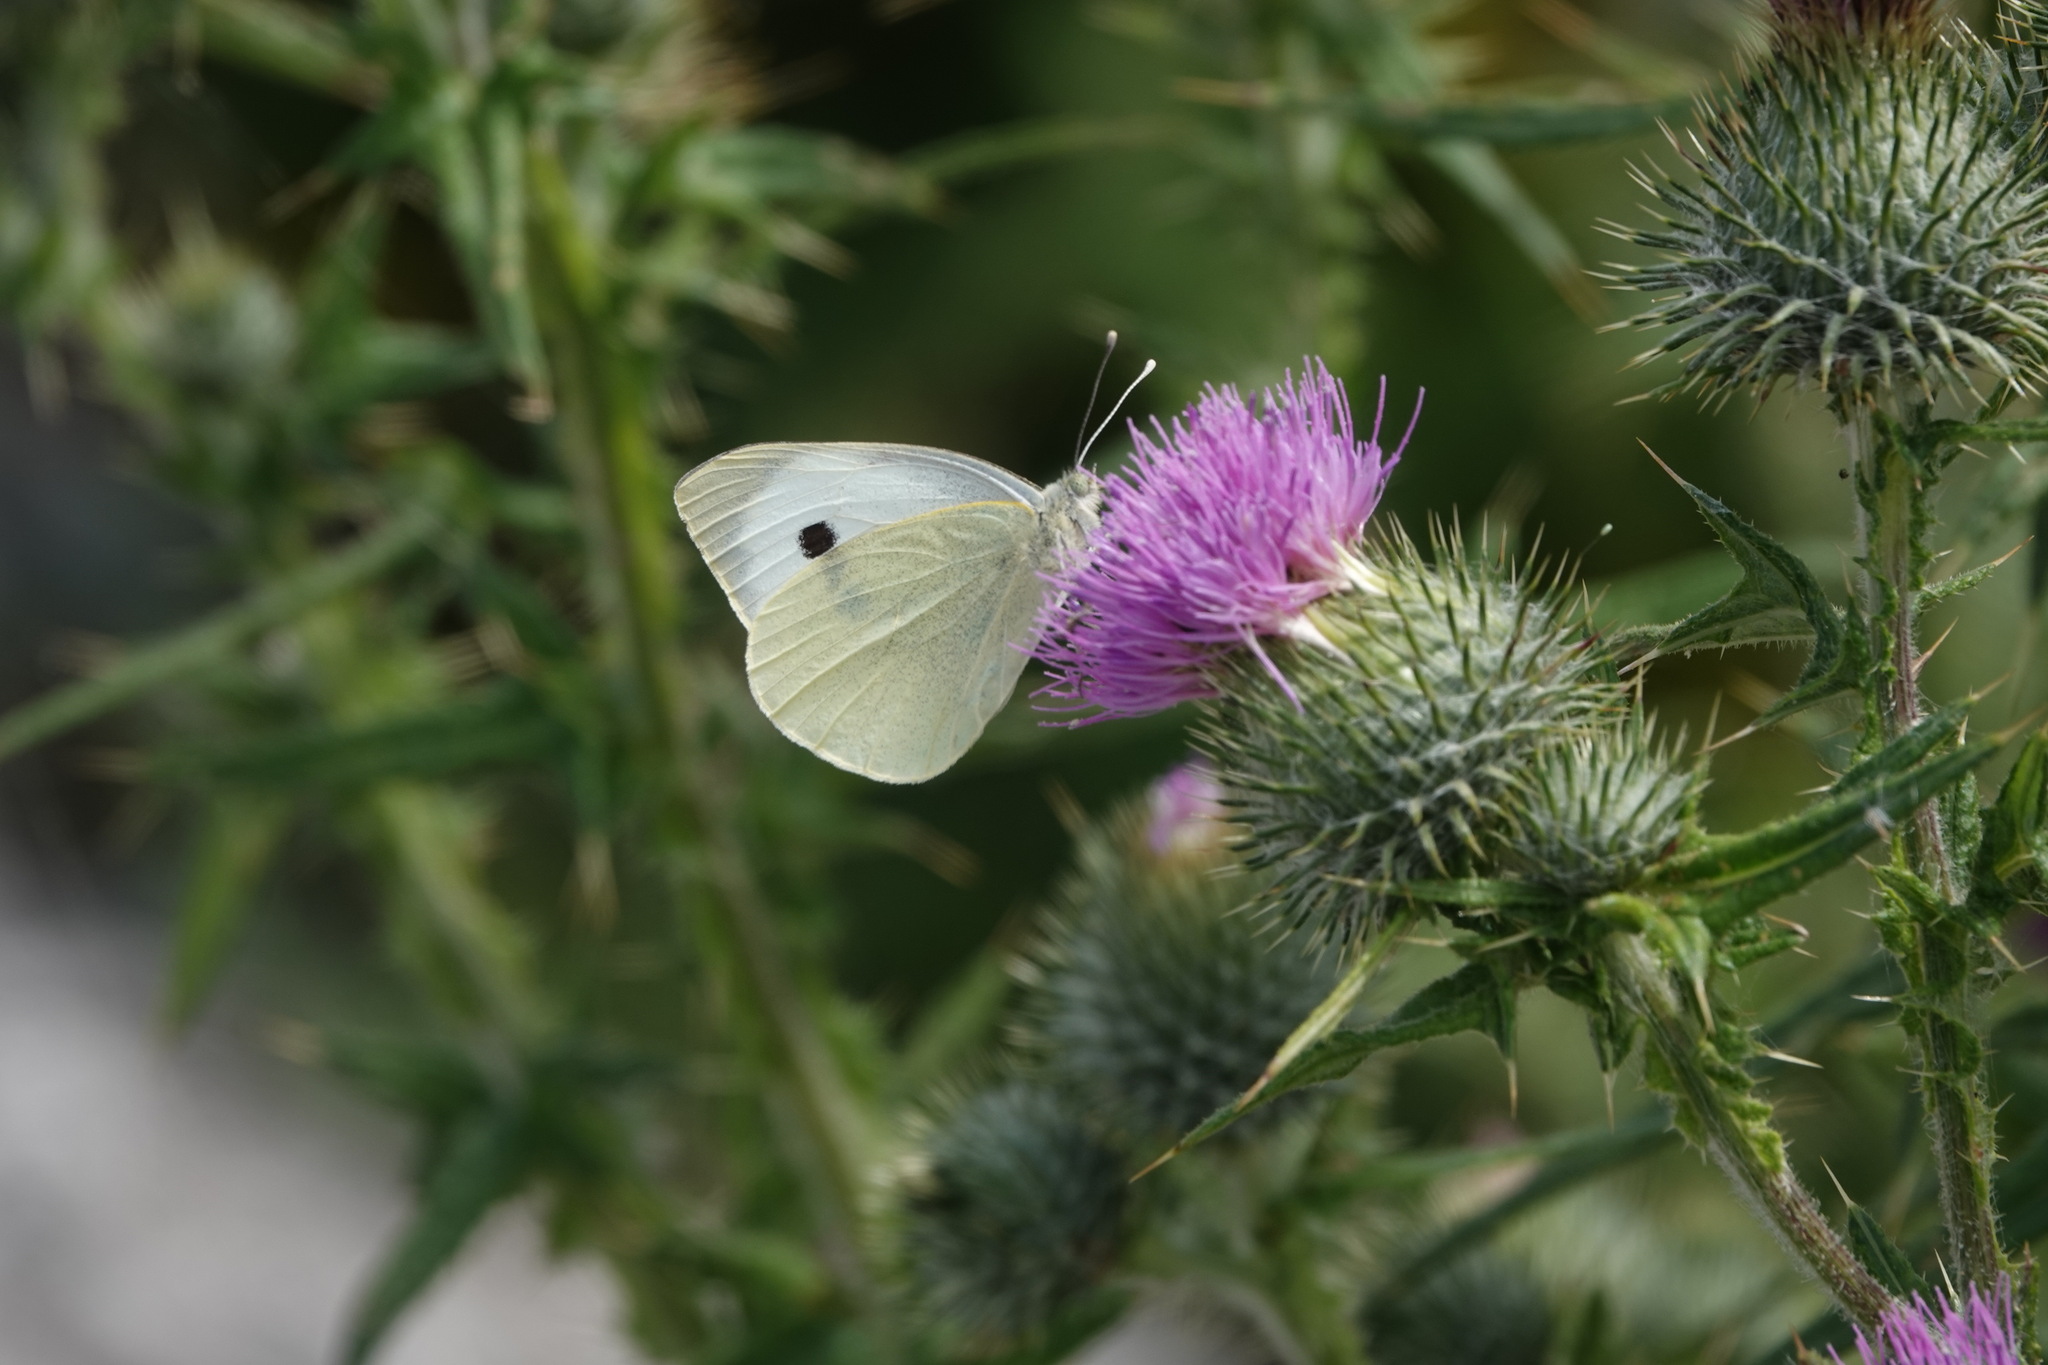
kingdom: Animalia
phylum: Arthropoda
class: Insecta
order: Lepidoptera
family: Pieridae
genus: Pieris
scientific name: Pieris brassicae
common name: Large white
